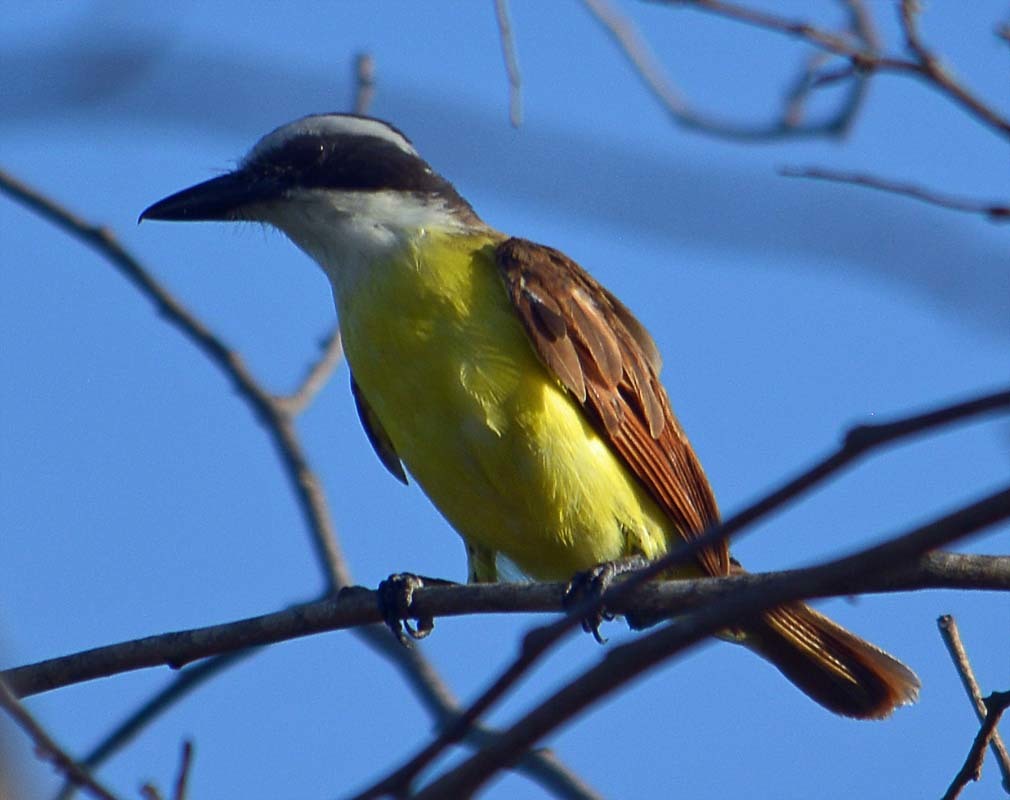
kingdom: Animalia
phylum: Chordata
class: Aves
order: Passeriformes
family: Tyrannidae
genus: Pitangus
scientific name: Pitangus sulphuratus
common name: Great kiskadee
